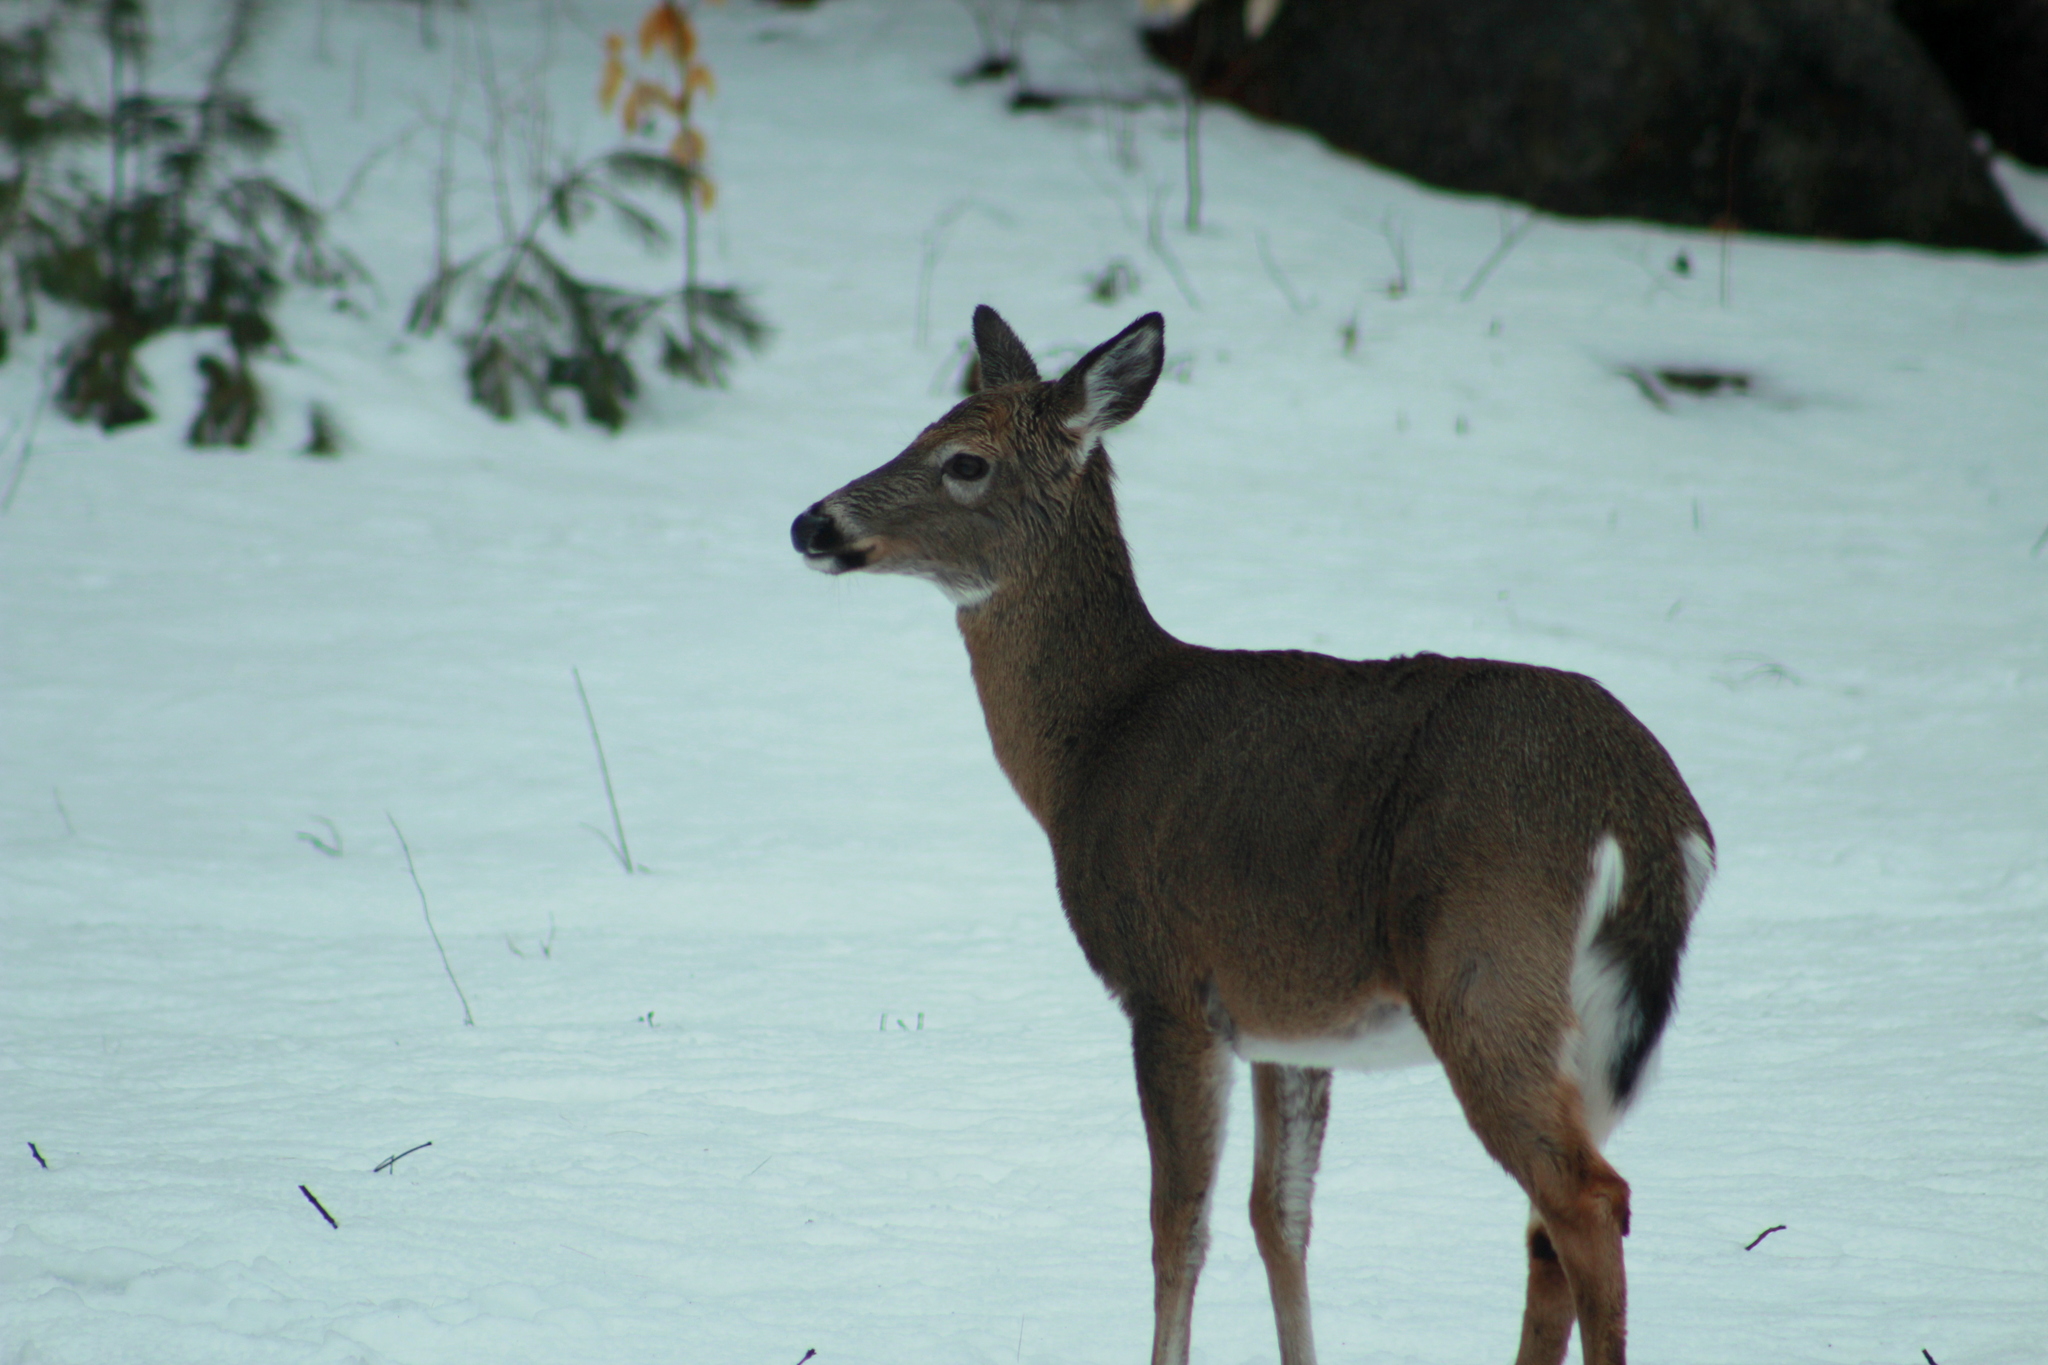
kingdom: Animalia
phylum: Chordata
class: Mammalia
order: Artiodactyla
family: Cervidae
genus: Odocoileus
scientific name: Odocoileus virginianus
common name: White-tailed deer
